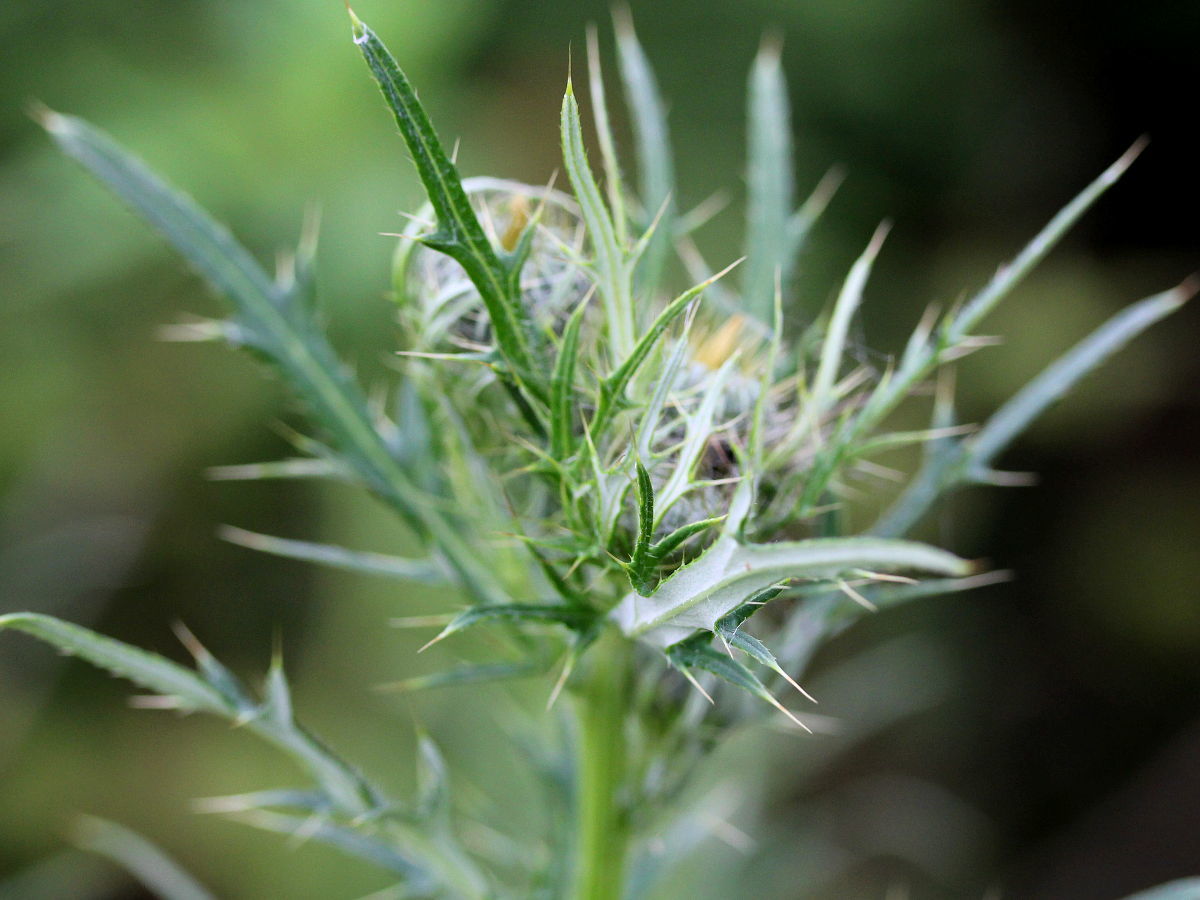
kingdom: Plantae
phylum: Tracheophyta
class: Magnoliopsida
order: Asterales
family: Asteraceae
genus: Cirsium
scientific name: Cirsium discolor
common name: Field thistle
